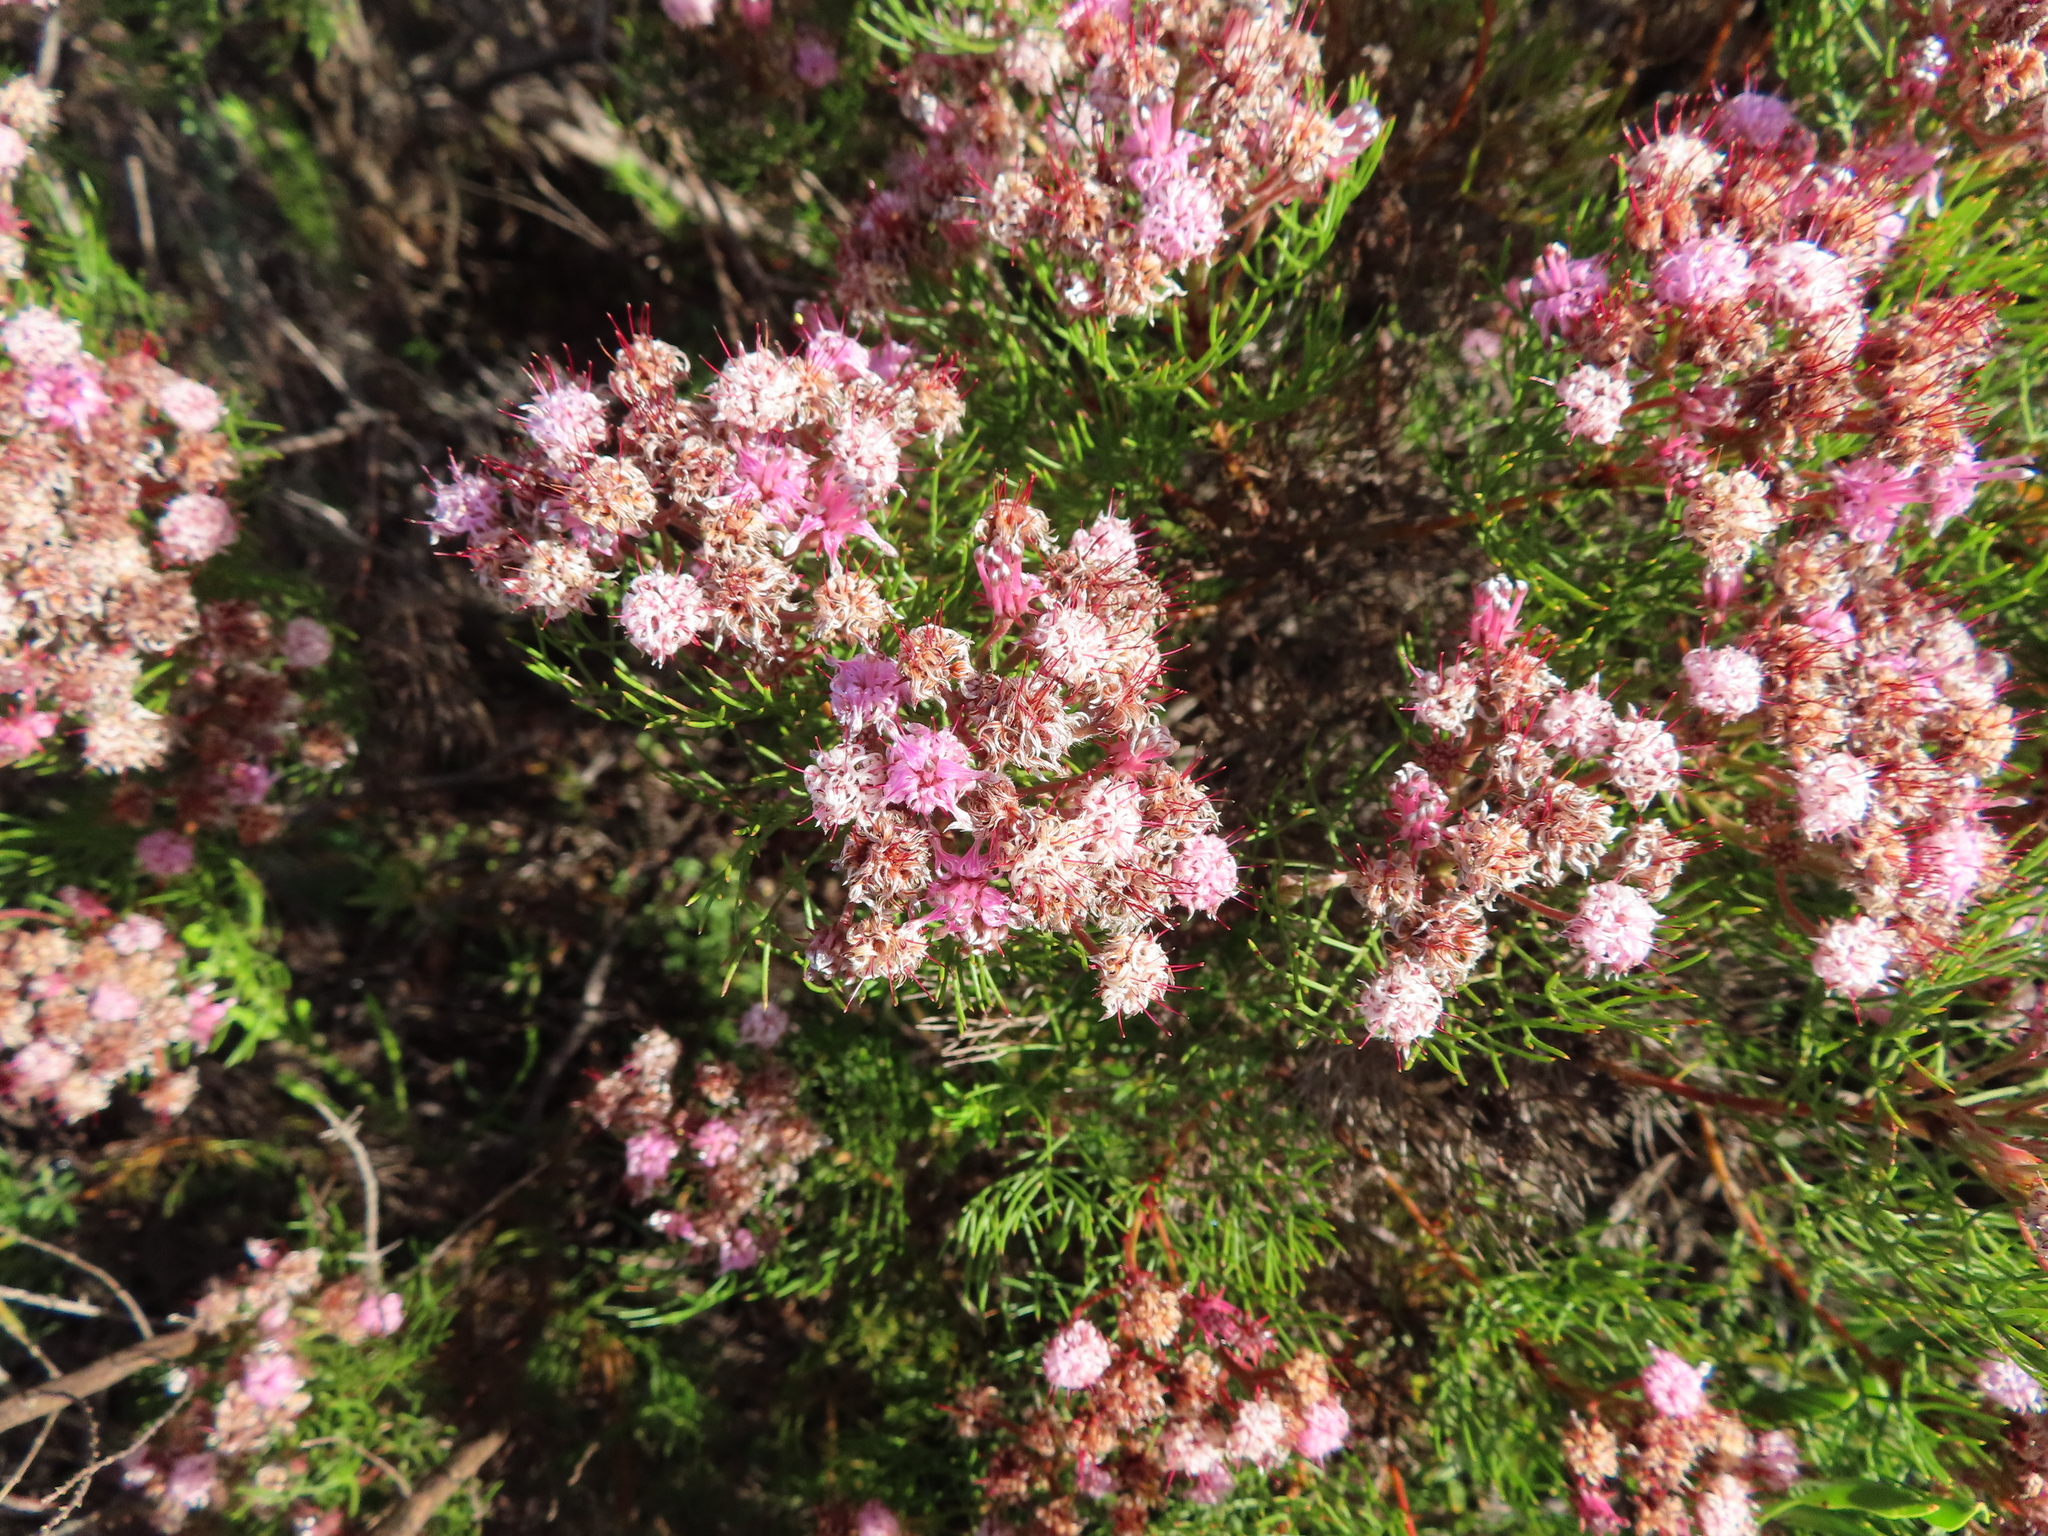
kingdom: Plantae
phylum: Tracheophyta
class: Magnoliopsida
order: Proteales
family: Proteaceae
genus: Serruria
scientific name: Serruria fasciflora
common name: Common pin spiderhead
